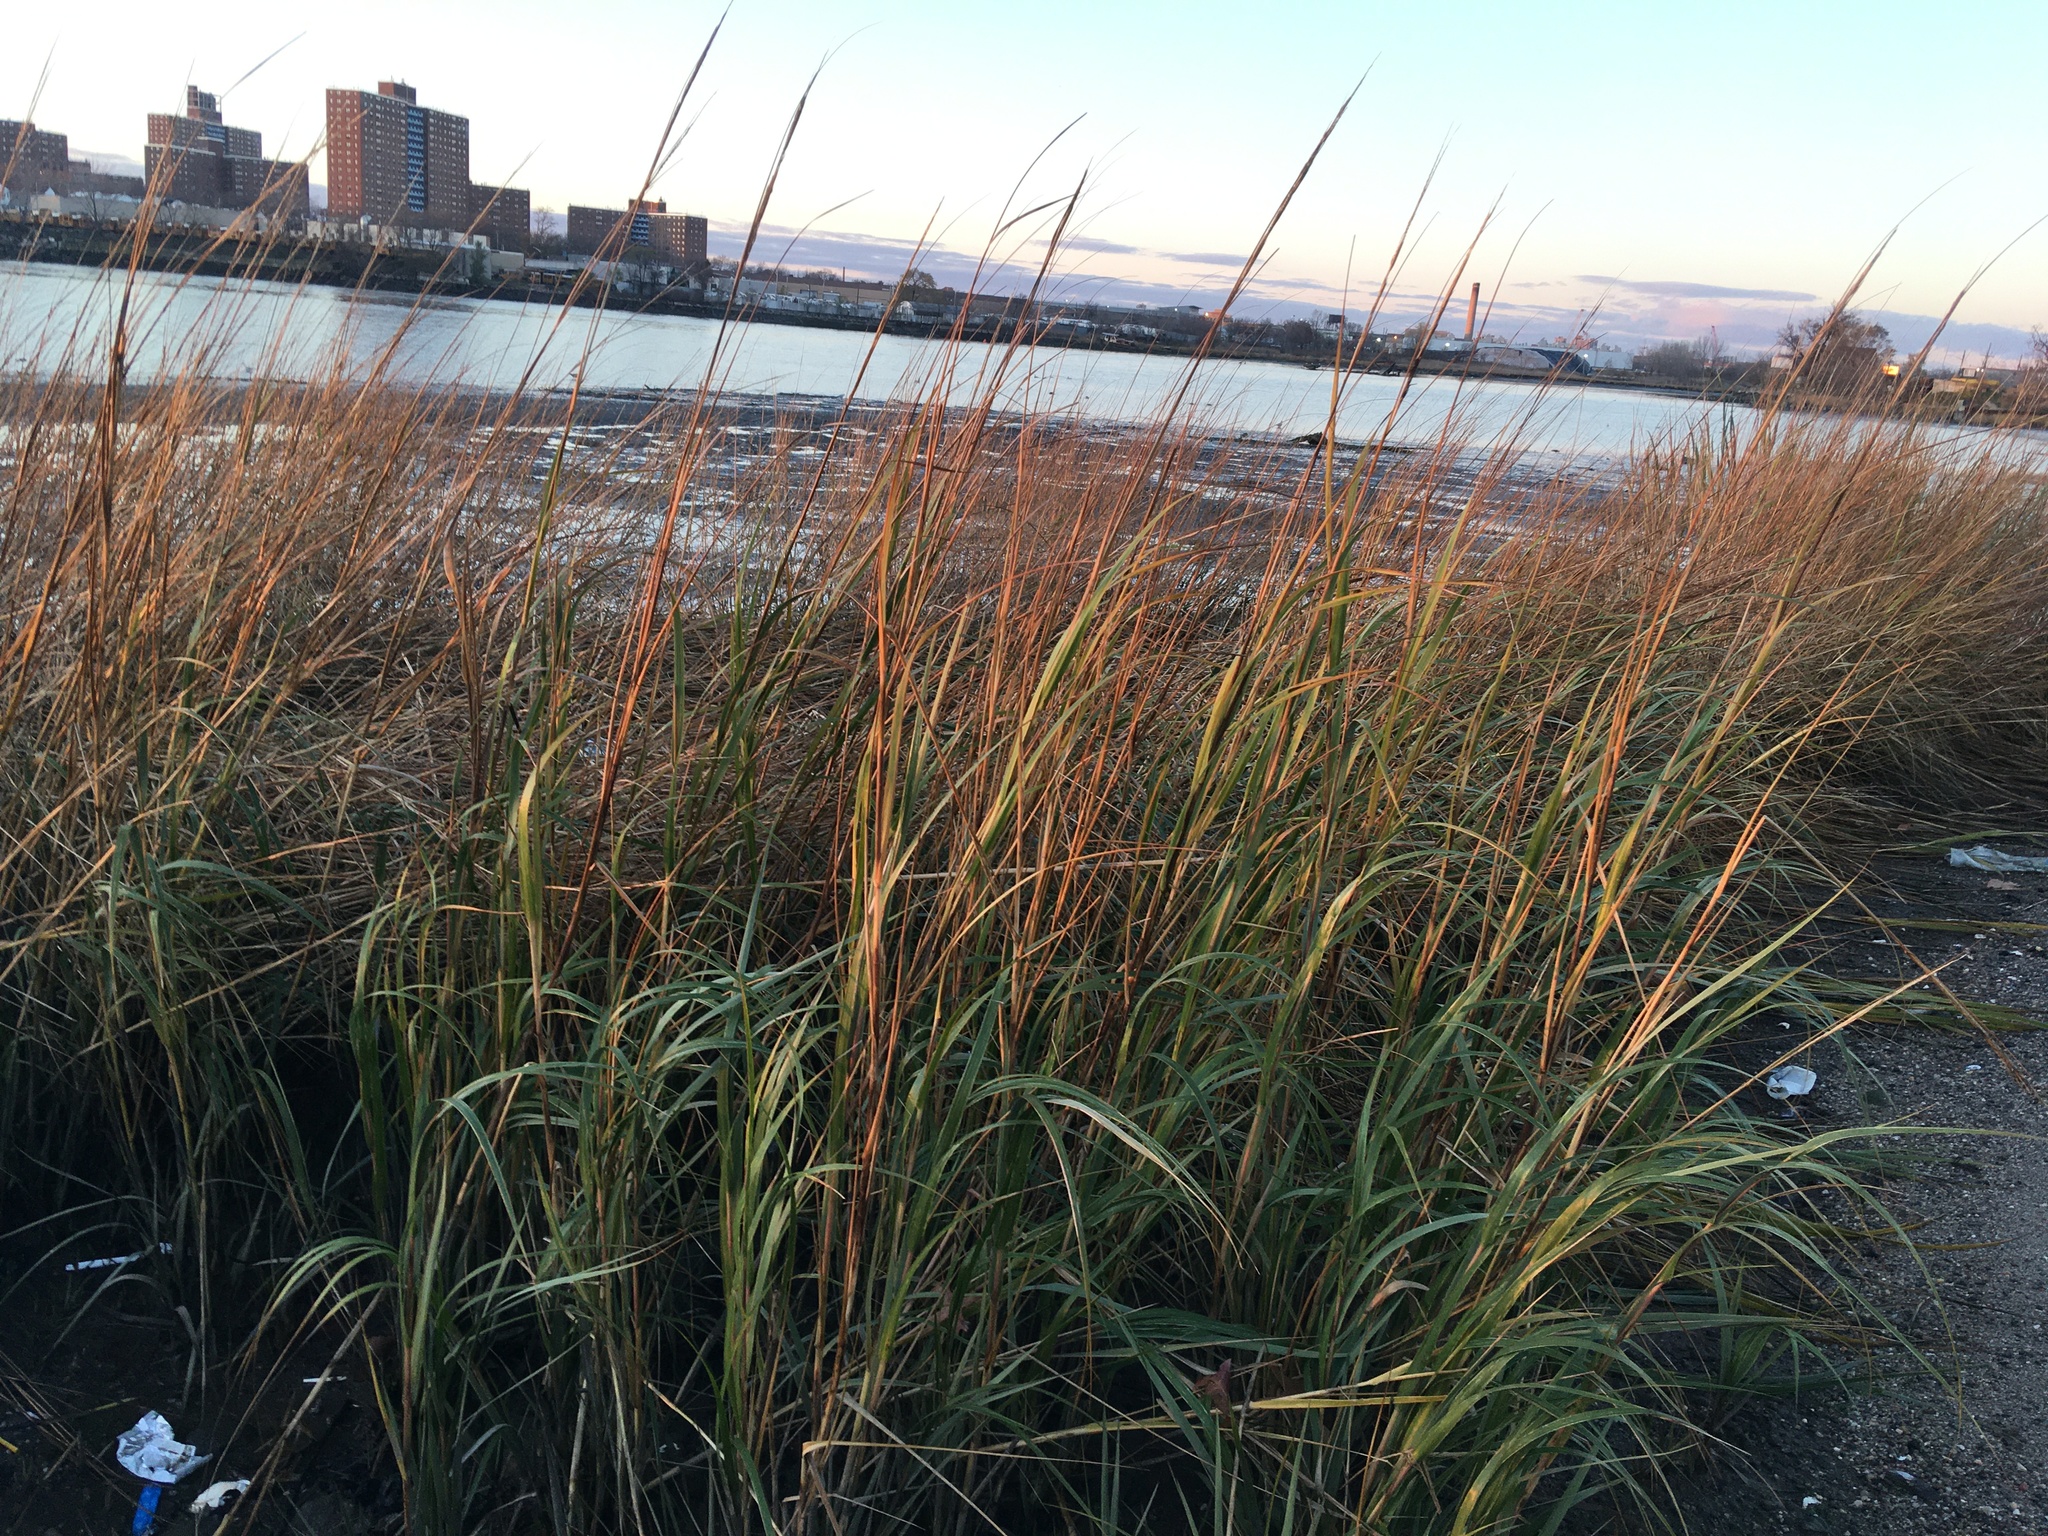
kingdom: Plantae
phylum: Tracheophyta
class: Liliopsida
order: Poales
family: Poaceae
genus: Sporobolus
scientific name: Sporobolus alterniflorus
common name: Atlantic cordgrass
